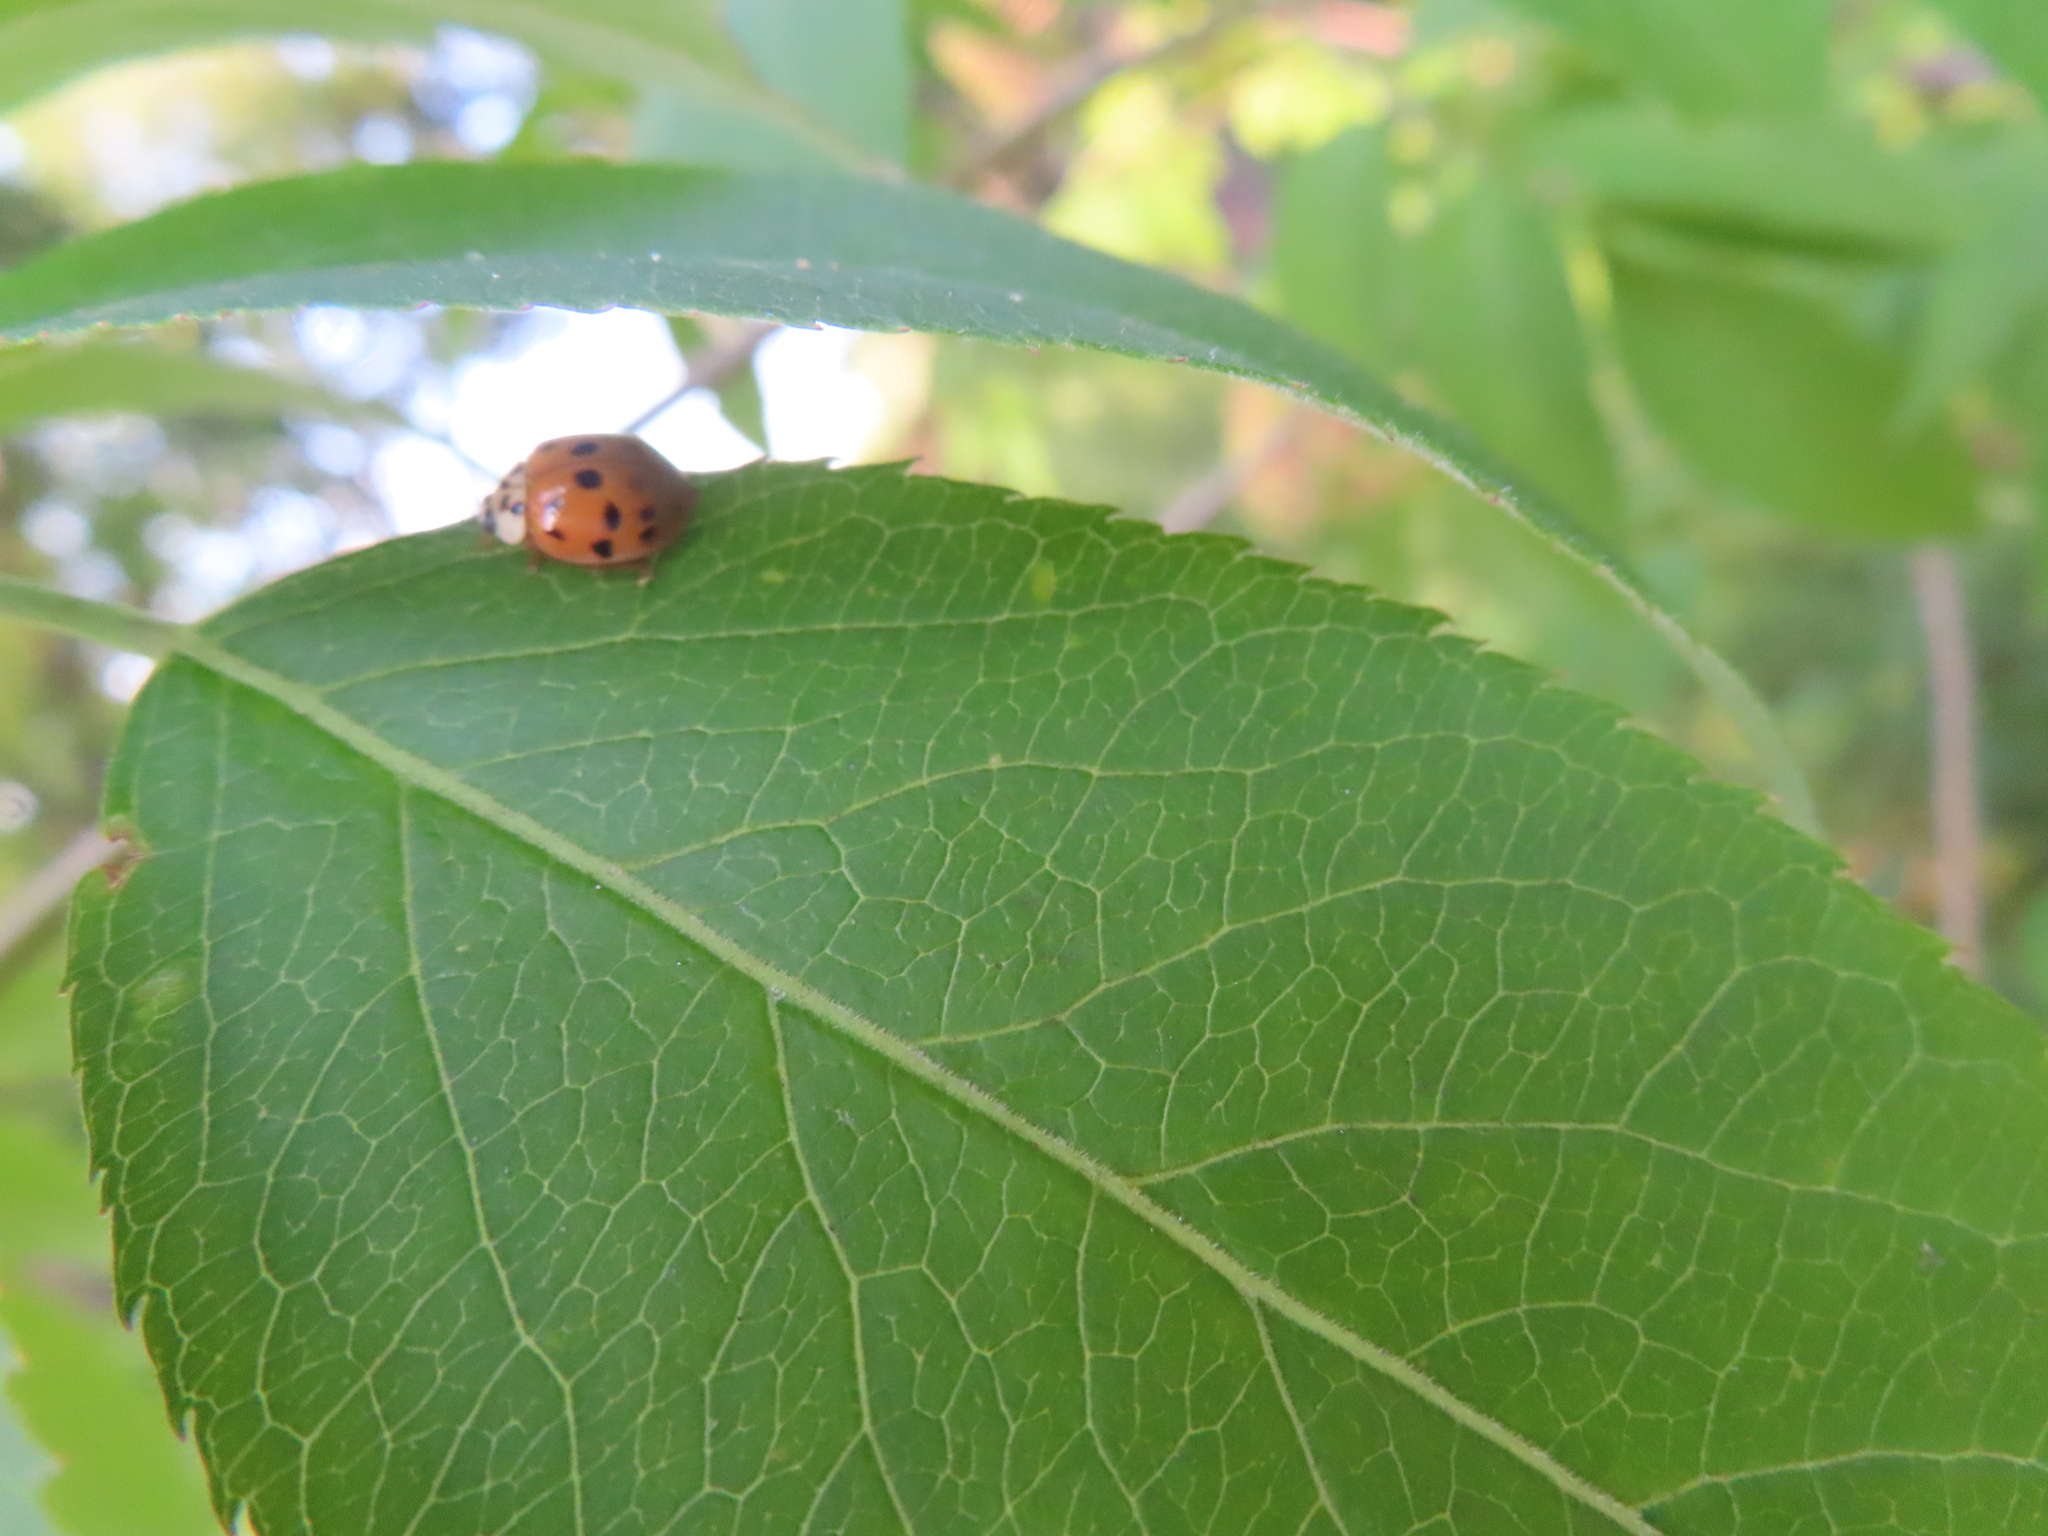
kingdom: Animalia
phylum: Arthropoda
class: Insecta
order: Coleoptera
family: Coccinellidae
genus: Harmonia
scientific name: Harmonia axyridis
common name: Harlequin ladybird
